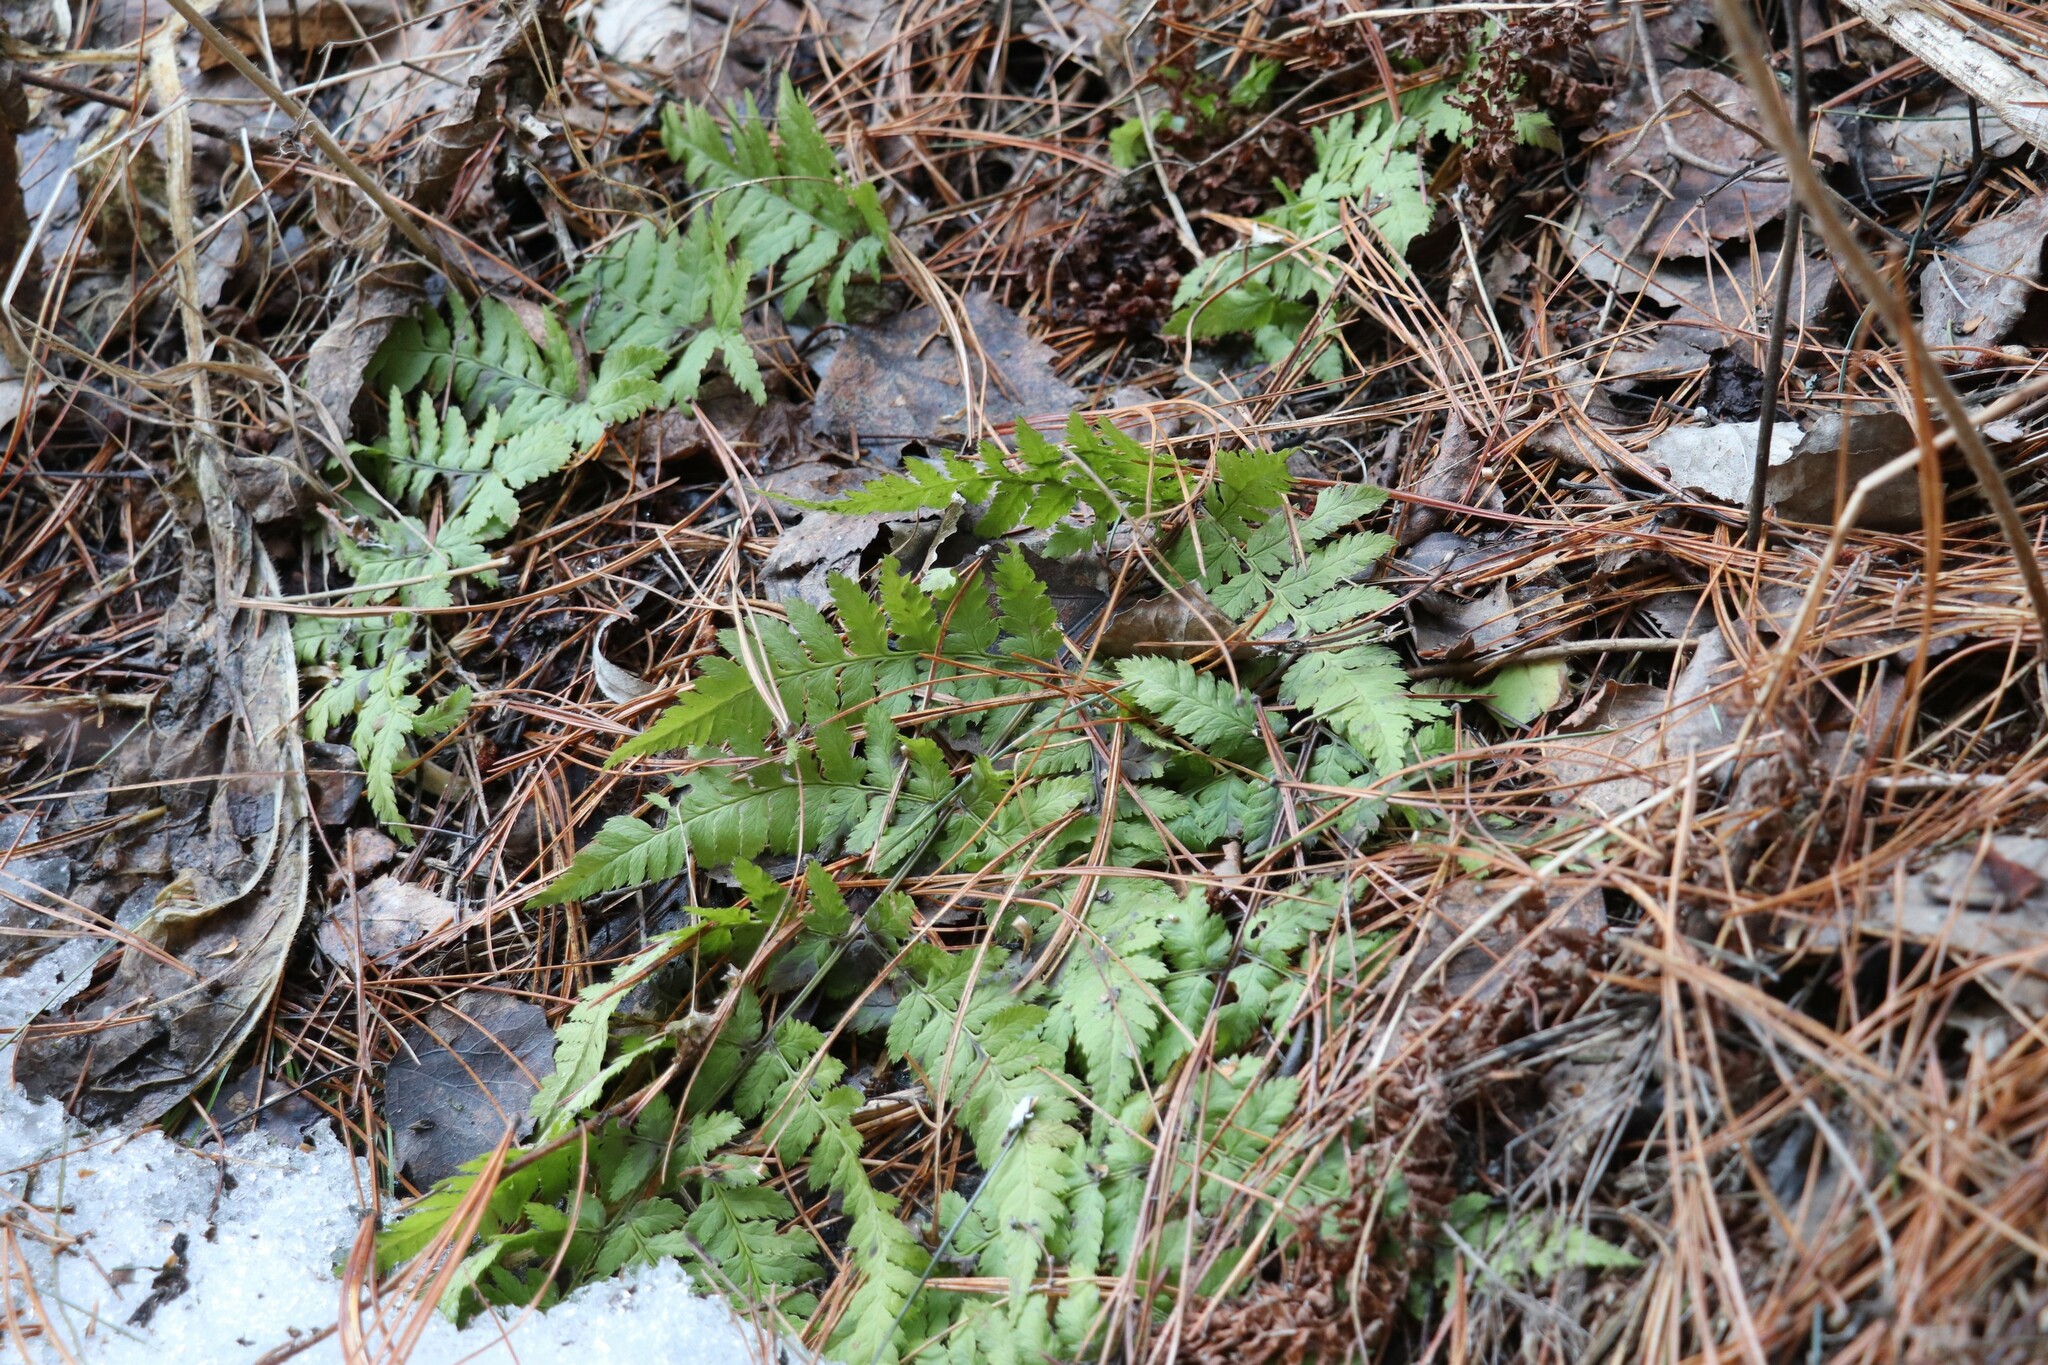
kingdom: Plantae
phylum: Tracheophyta
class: Polypodiopsida
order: Polypodiales
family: Dryopteridaceae
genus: Dryopteris
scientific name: Dryopteris carthusiana
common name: Narrow buckler-fern
